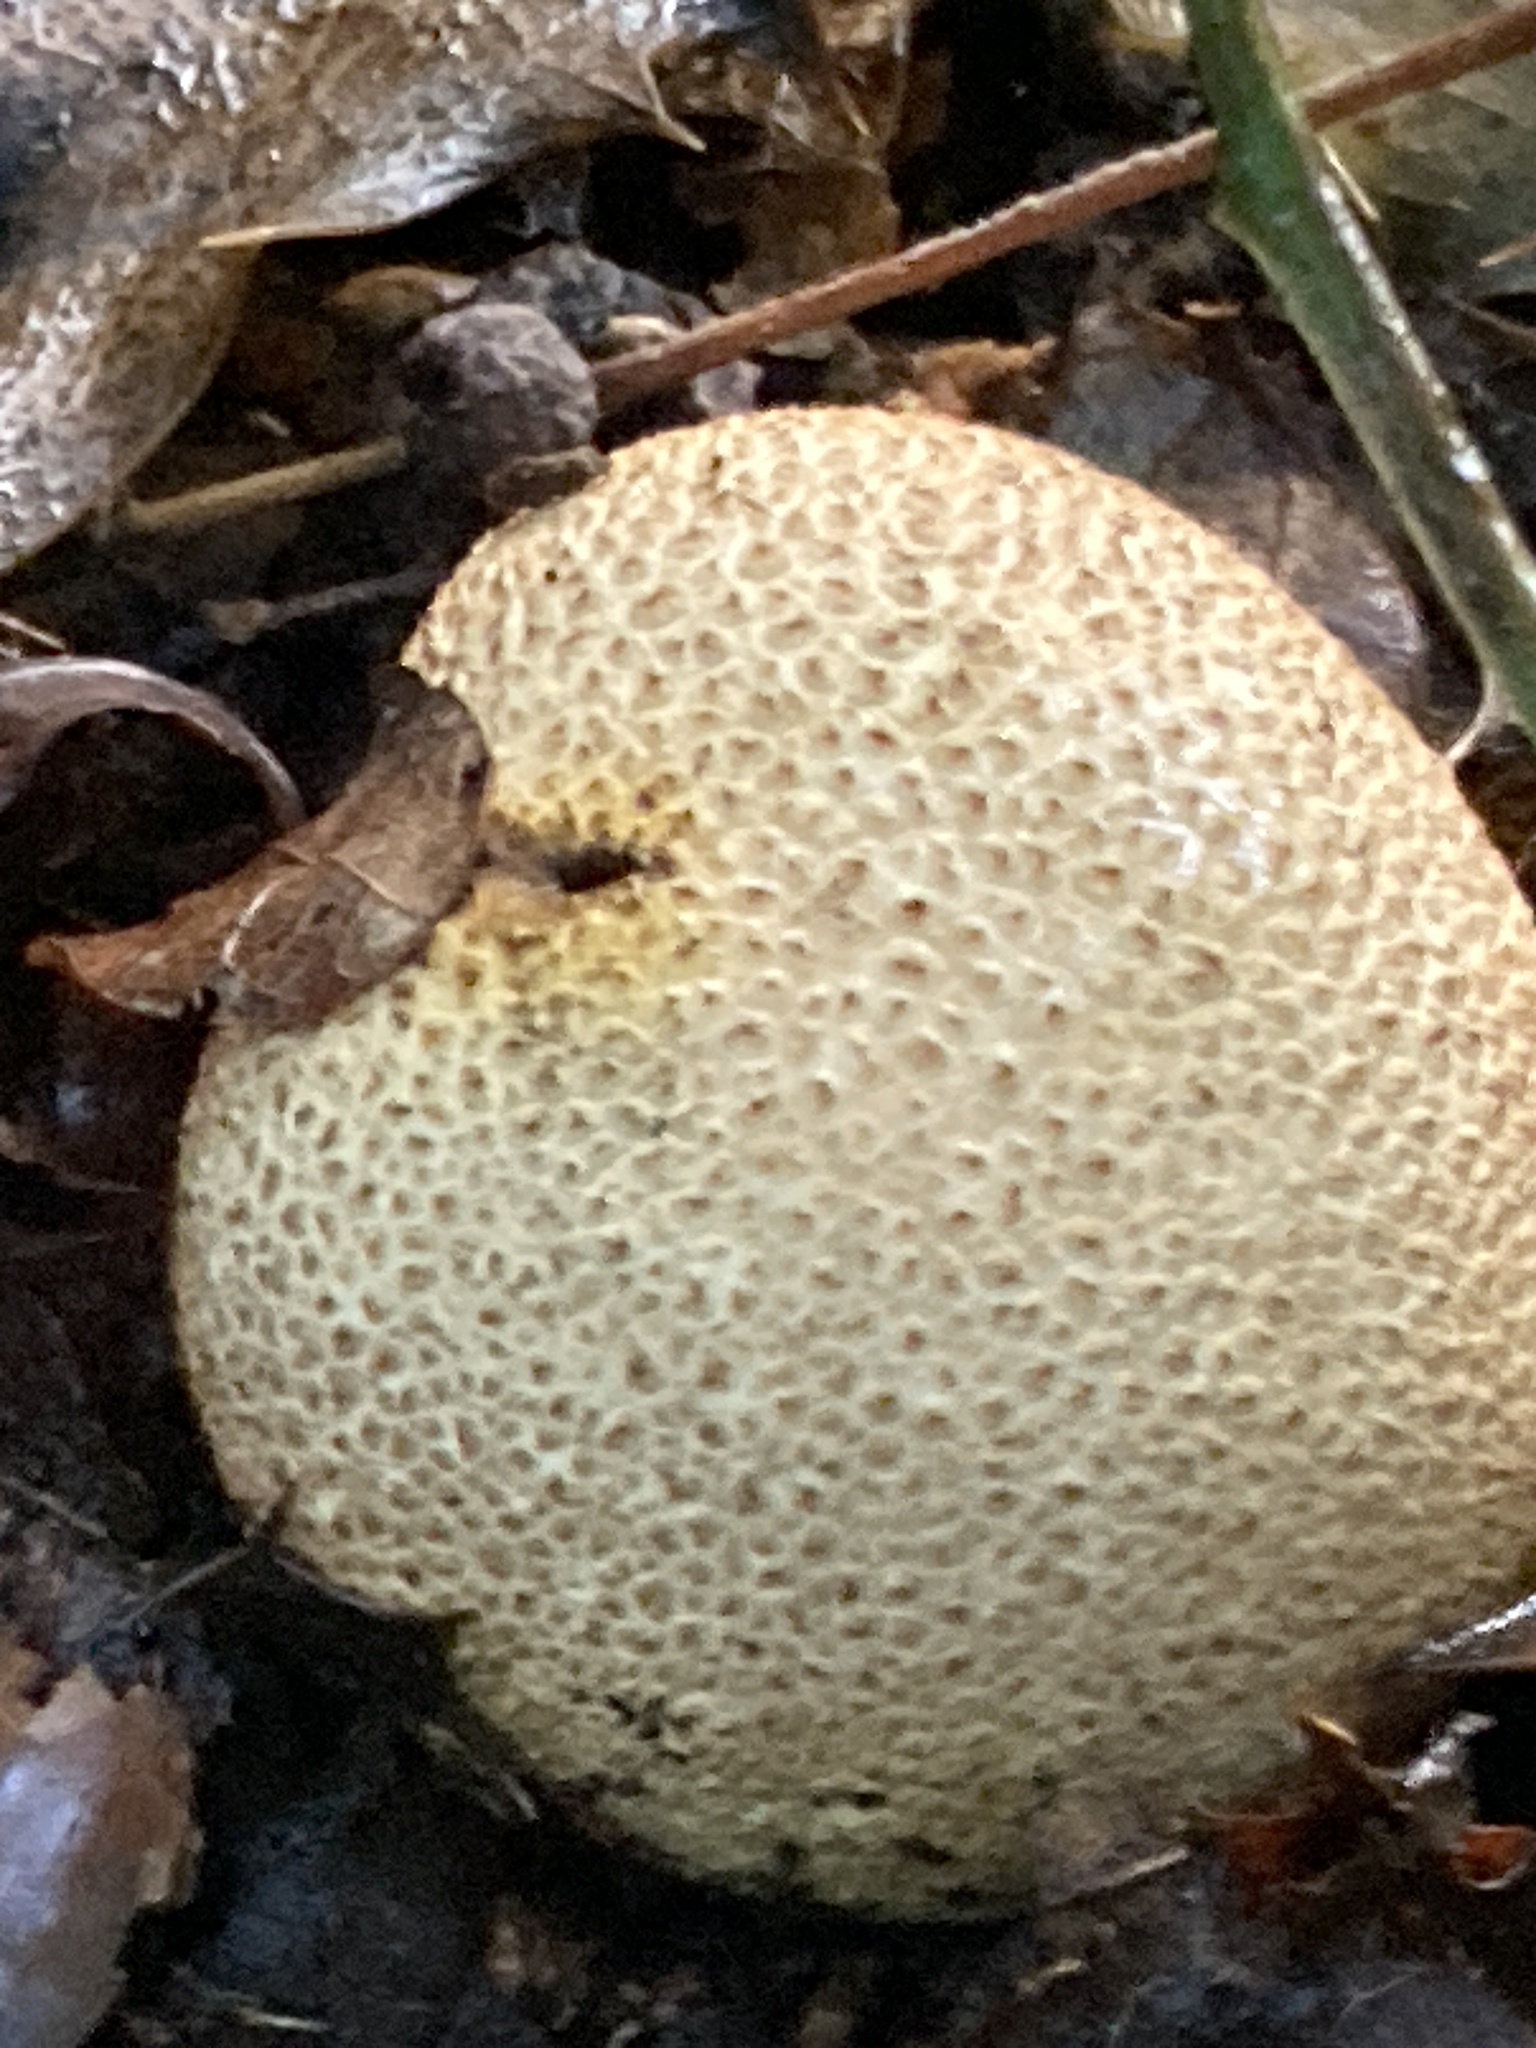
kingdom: Fungi
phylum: Basidiomycota
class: Agaricomycetes
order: Boletales
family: Sclerodermataceae
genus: Scleroderma
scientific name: Scleroderma citrinum
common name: Common earthball
